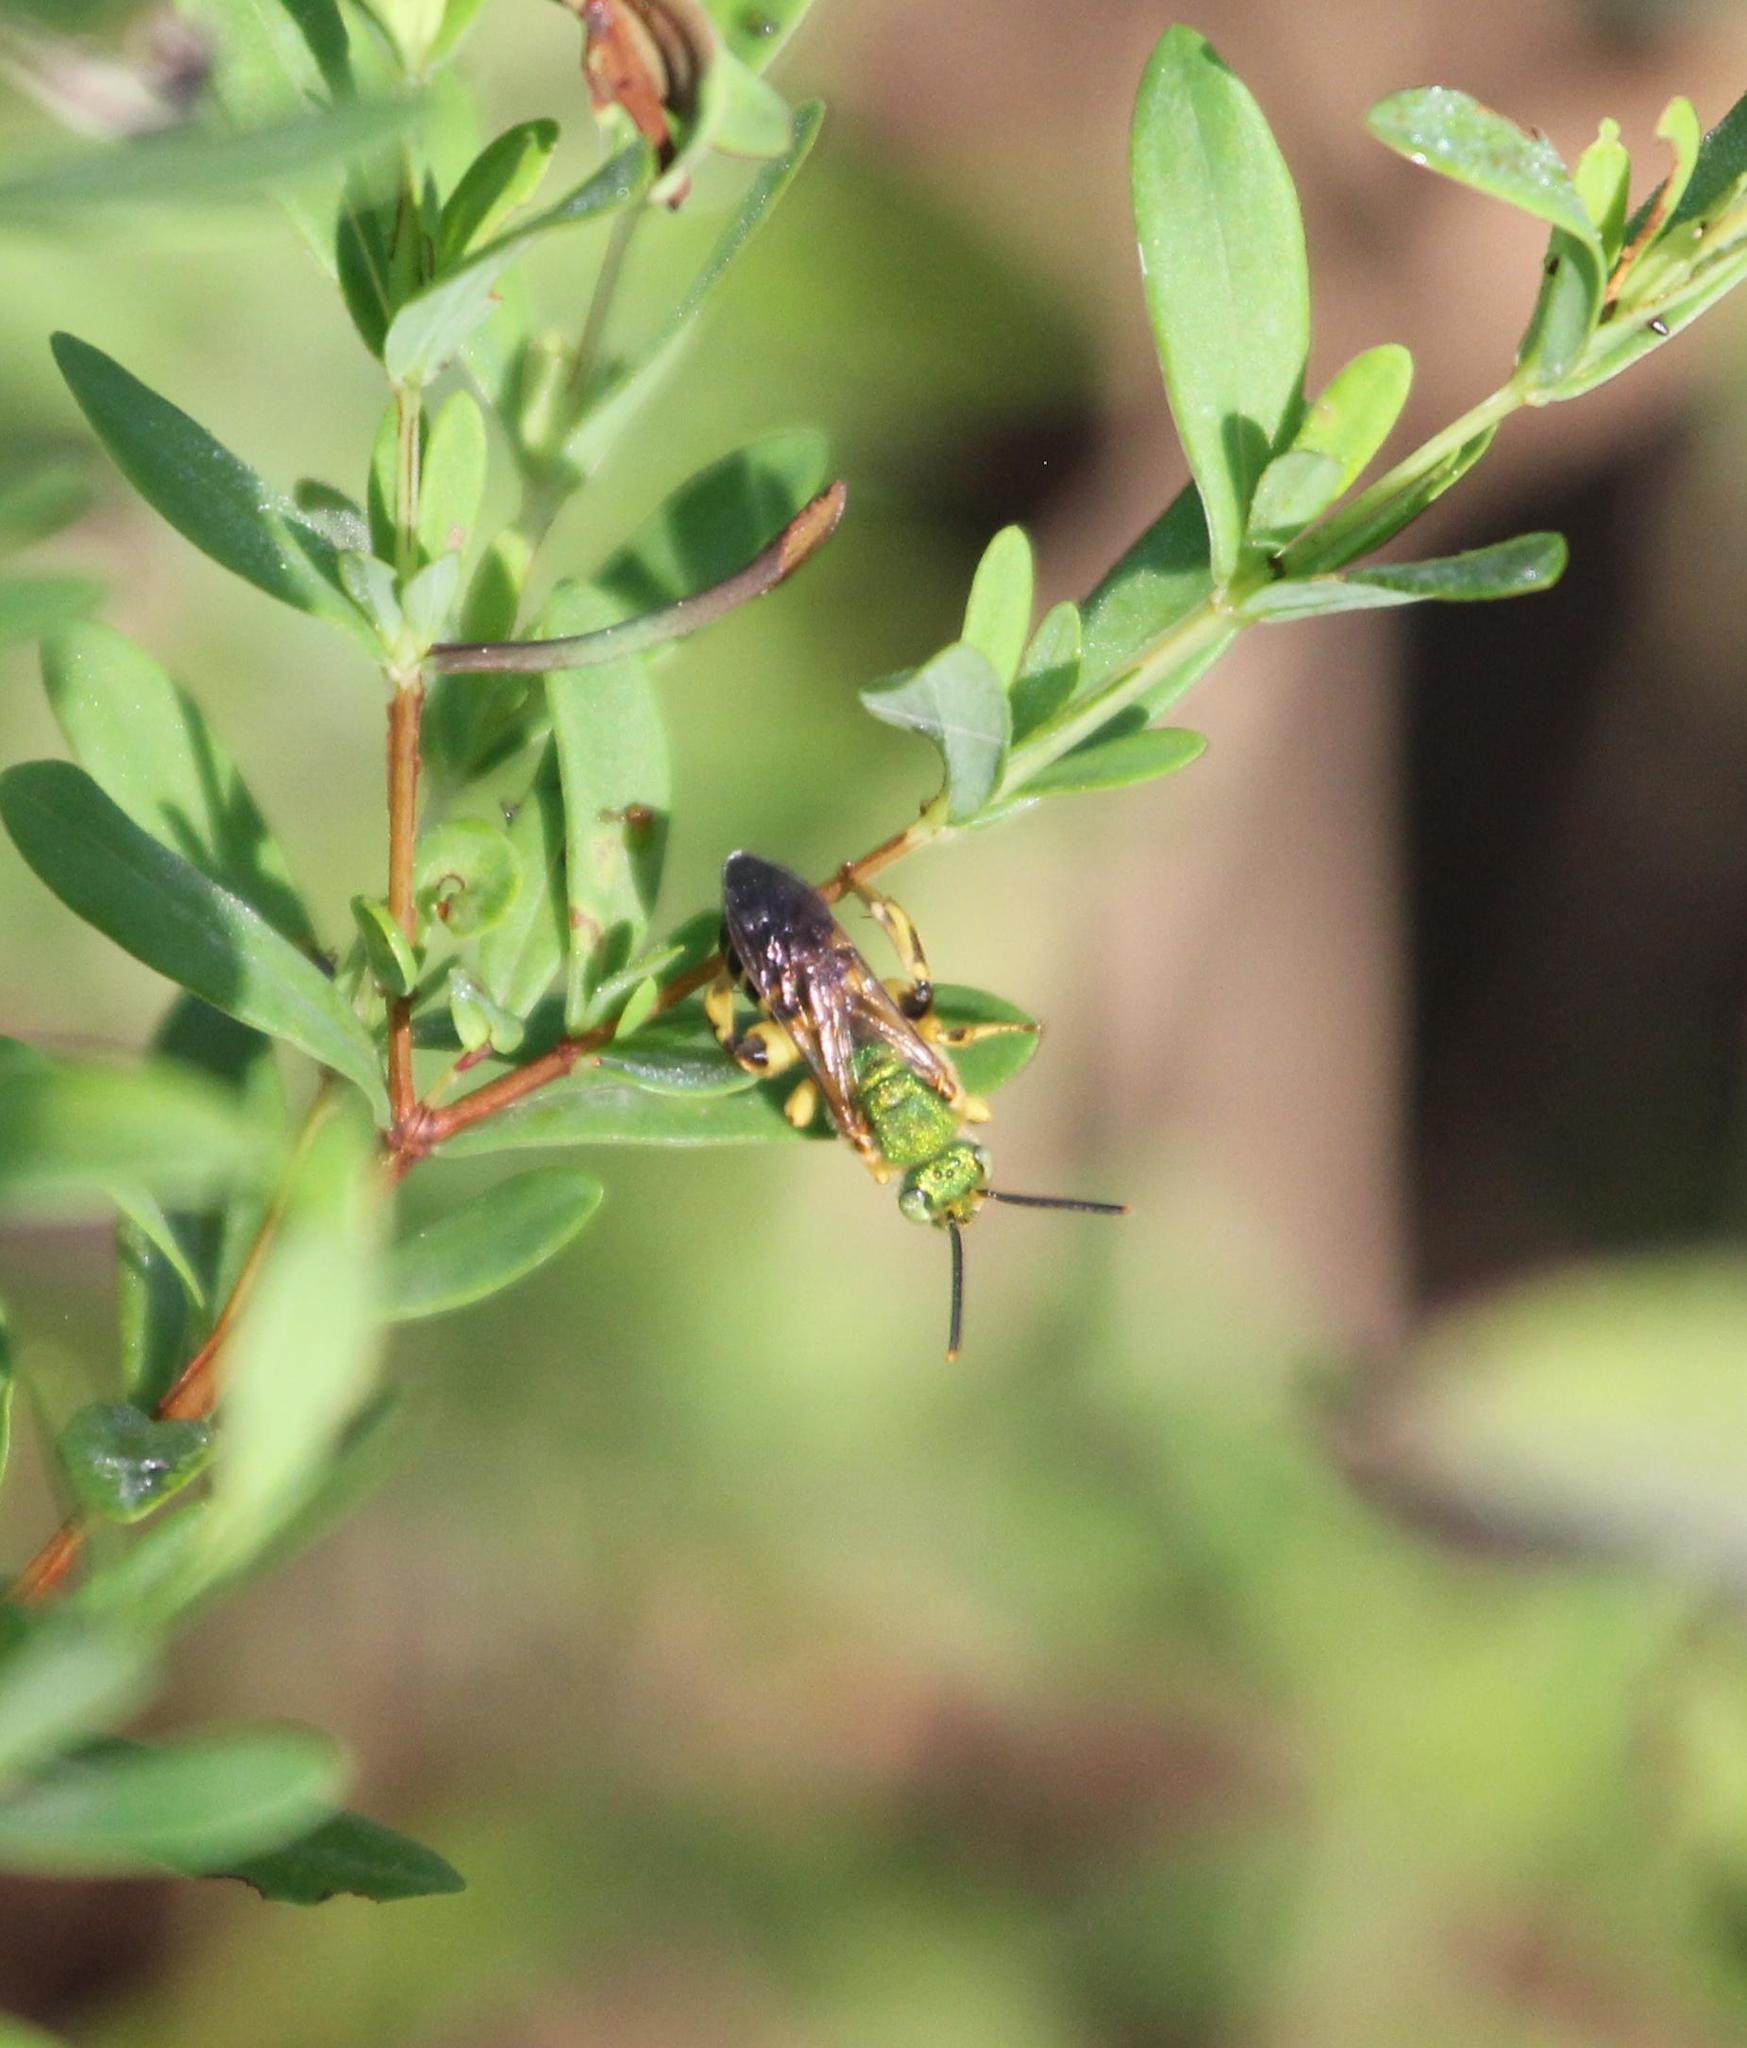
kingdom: Animalia
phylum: Arthropoda
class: Insecta
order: Hymenoptera
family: Halictidae
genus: Agapostemon
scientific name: Agapostemon splendens
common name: Brown-winged striped sweat bee
